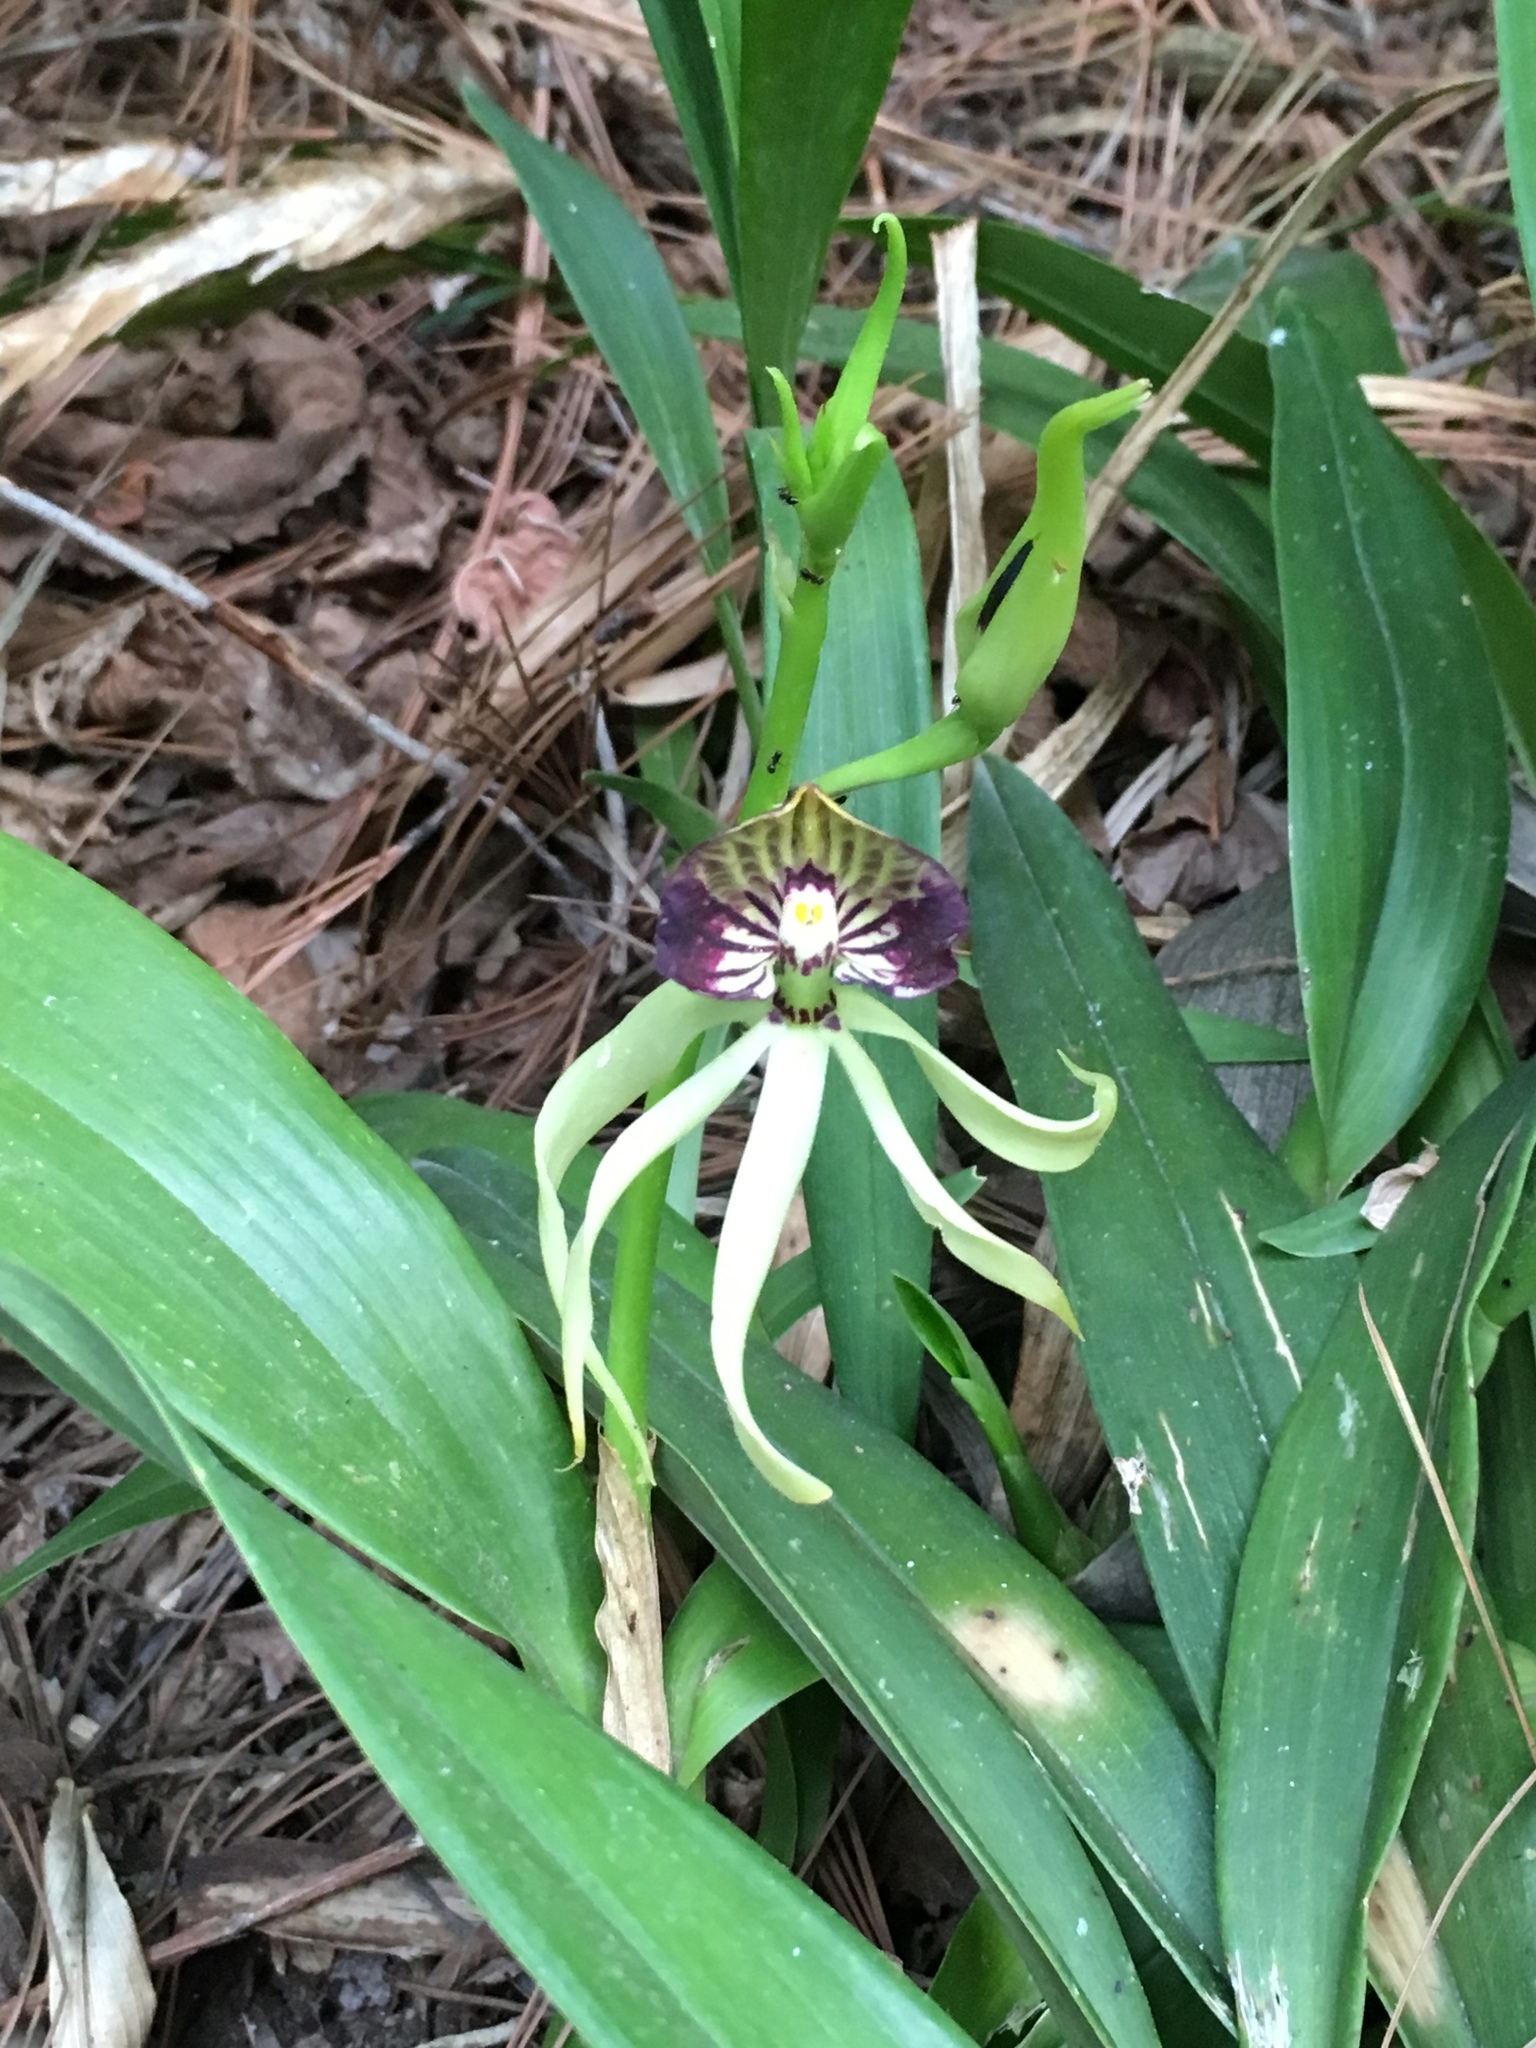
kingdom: Plantae
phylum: Tracheophyta
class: Liliopsida
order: Asparagales
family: Orchidaceae
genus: Prosthechea
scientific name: Prosthechea cochleata
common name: Clamshell orchid
